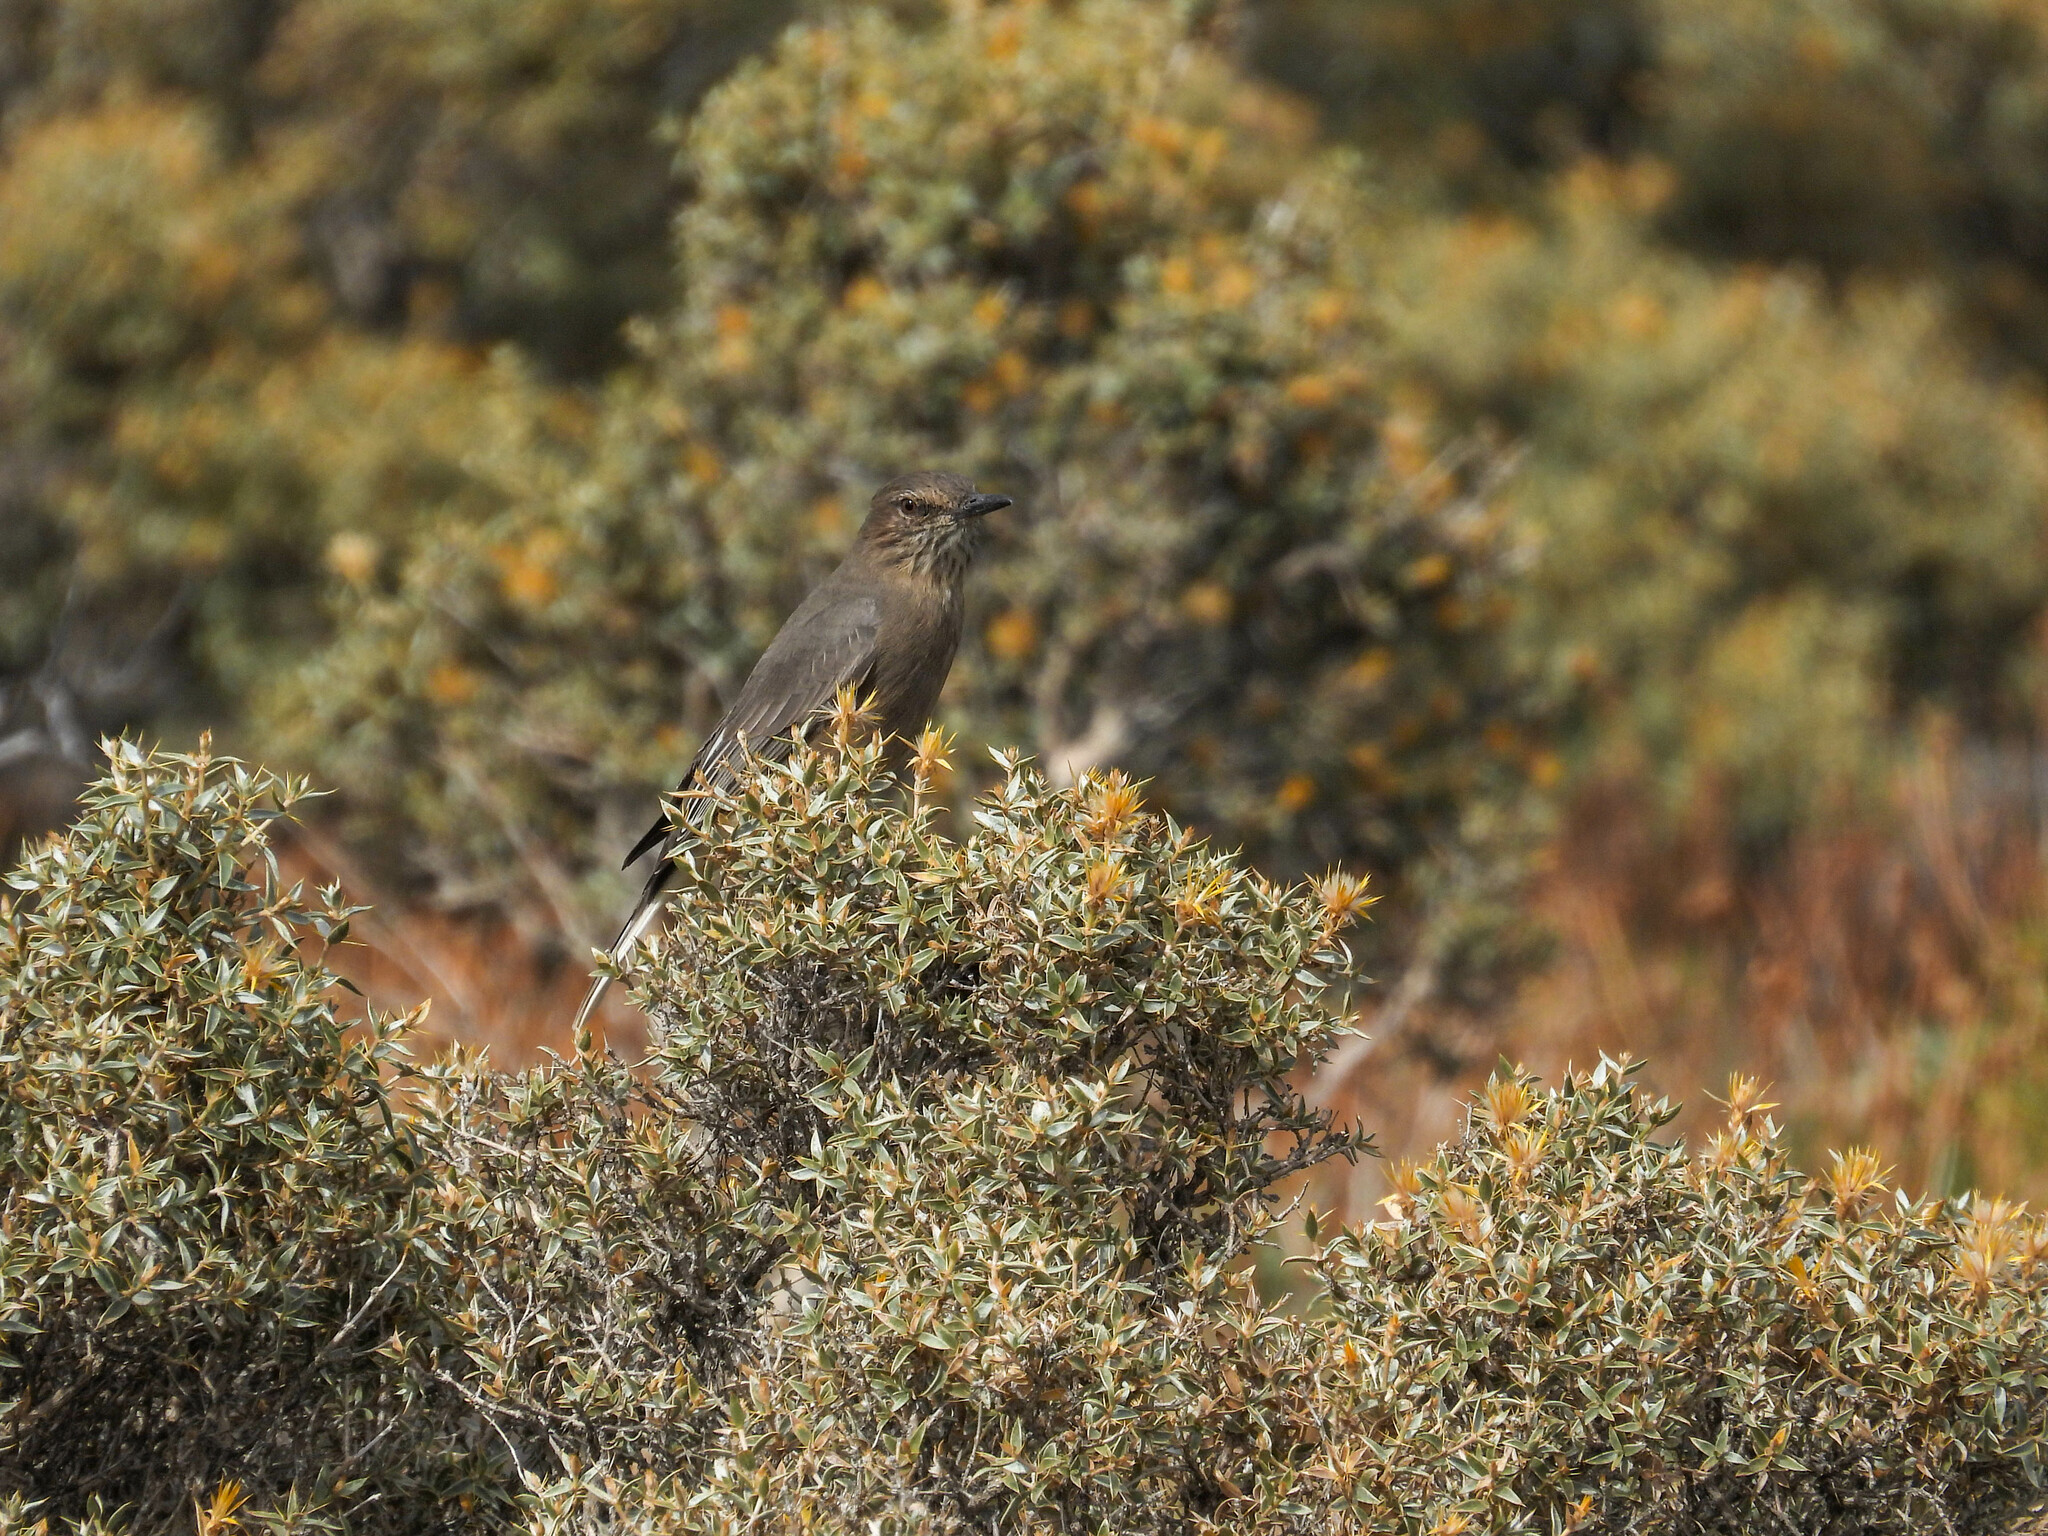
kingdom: Animalia
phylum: Chordata
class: Aves
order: Passeriformes
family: Tyrannidae
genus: Agriornis
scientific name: Agriornis montanus
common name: Black-billed shrike-tyrant
